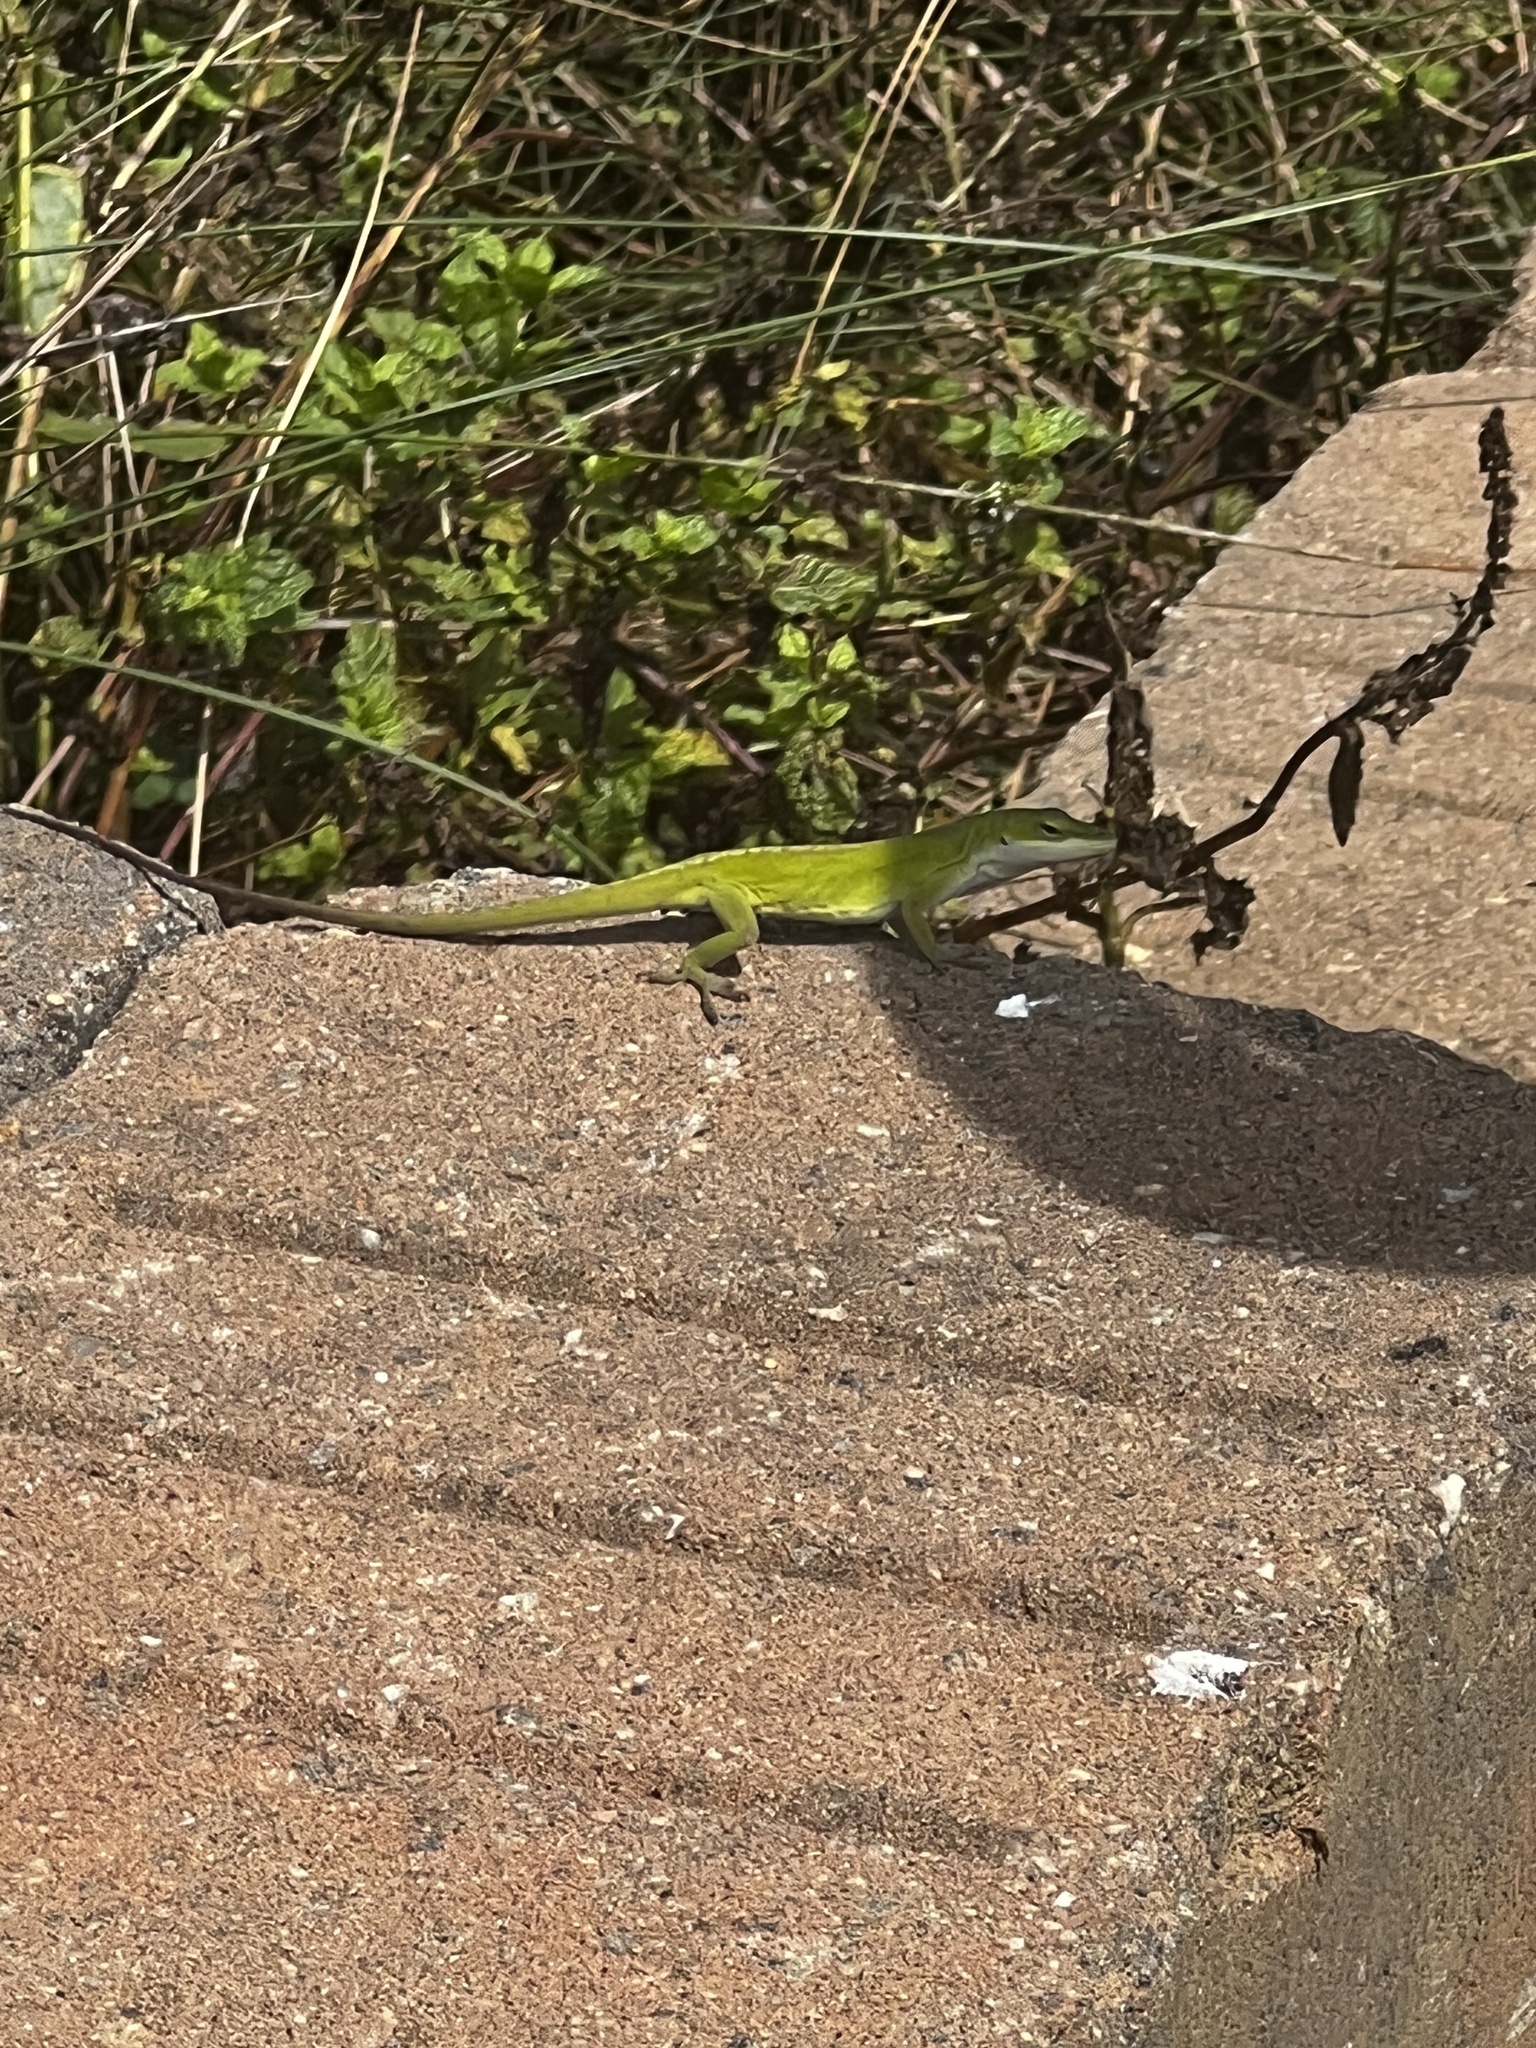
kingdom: Animalia
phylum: Chordata
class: Squamata
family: Dactyloidae
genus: Anolis
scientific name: Anolis carolinensis
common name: Green anole
